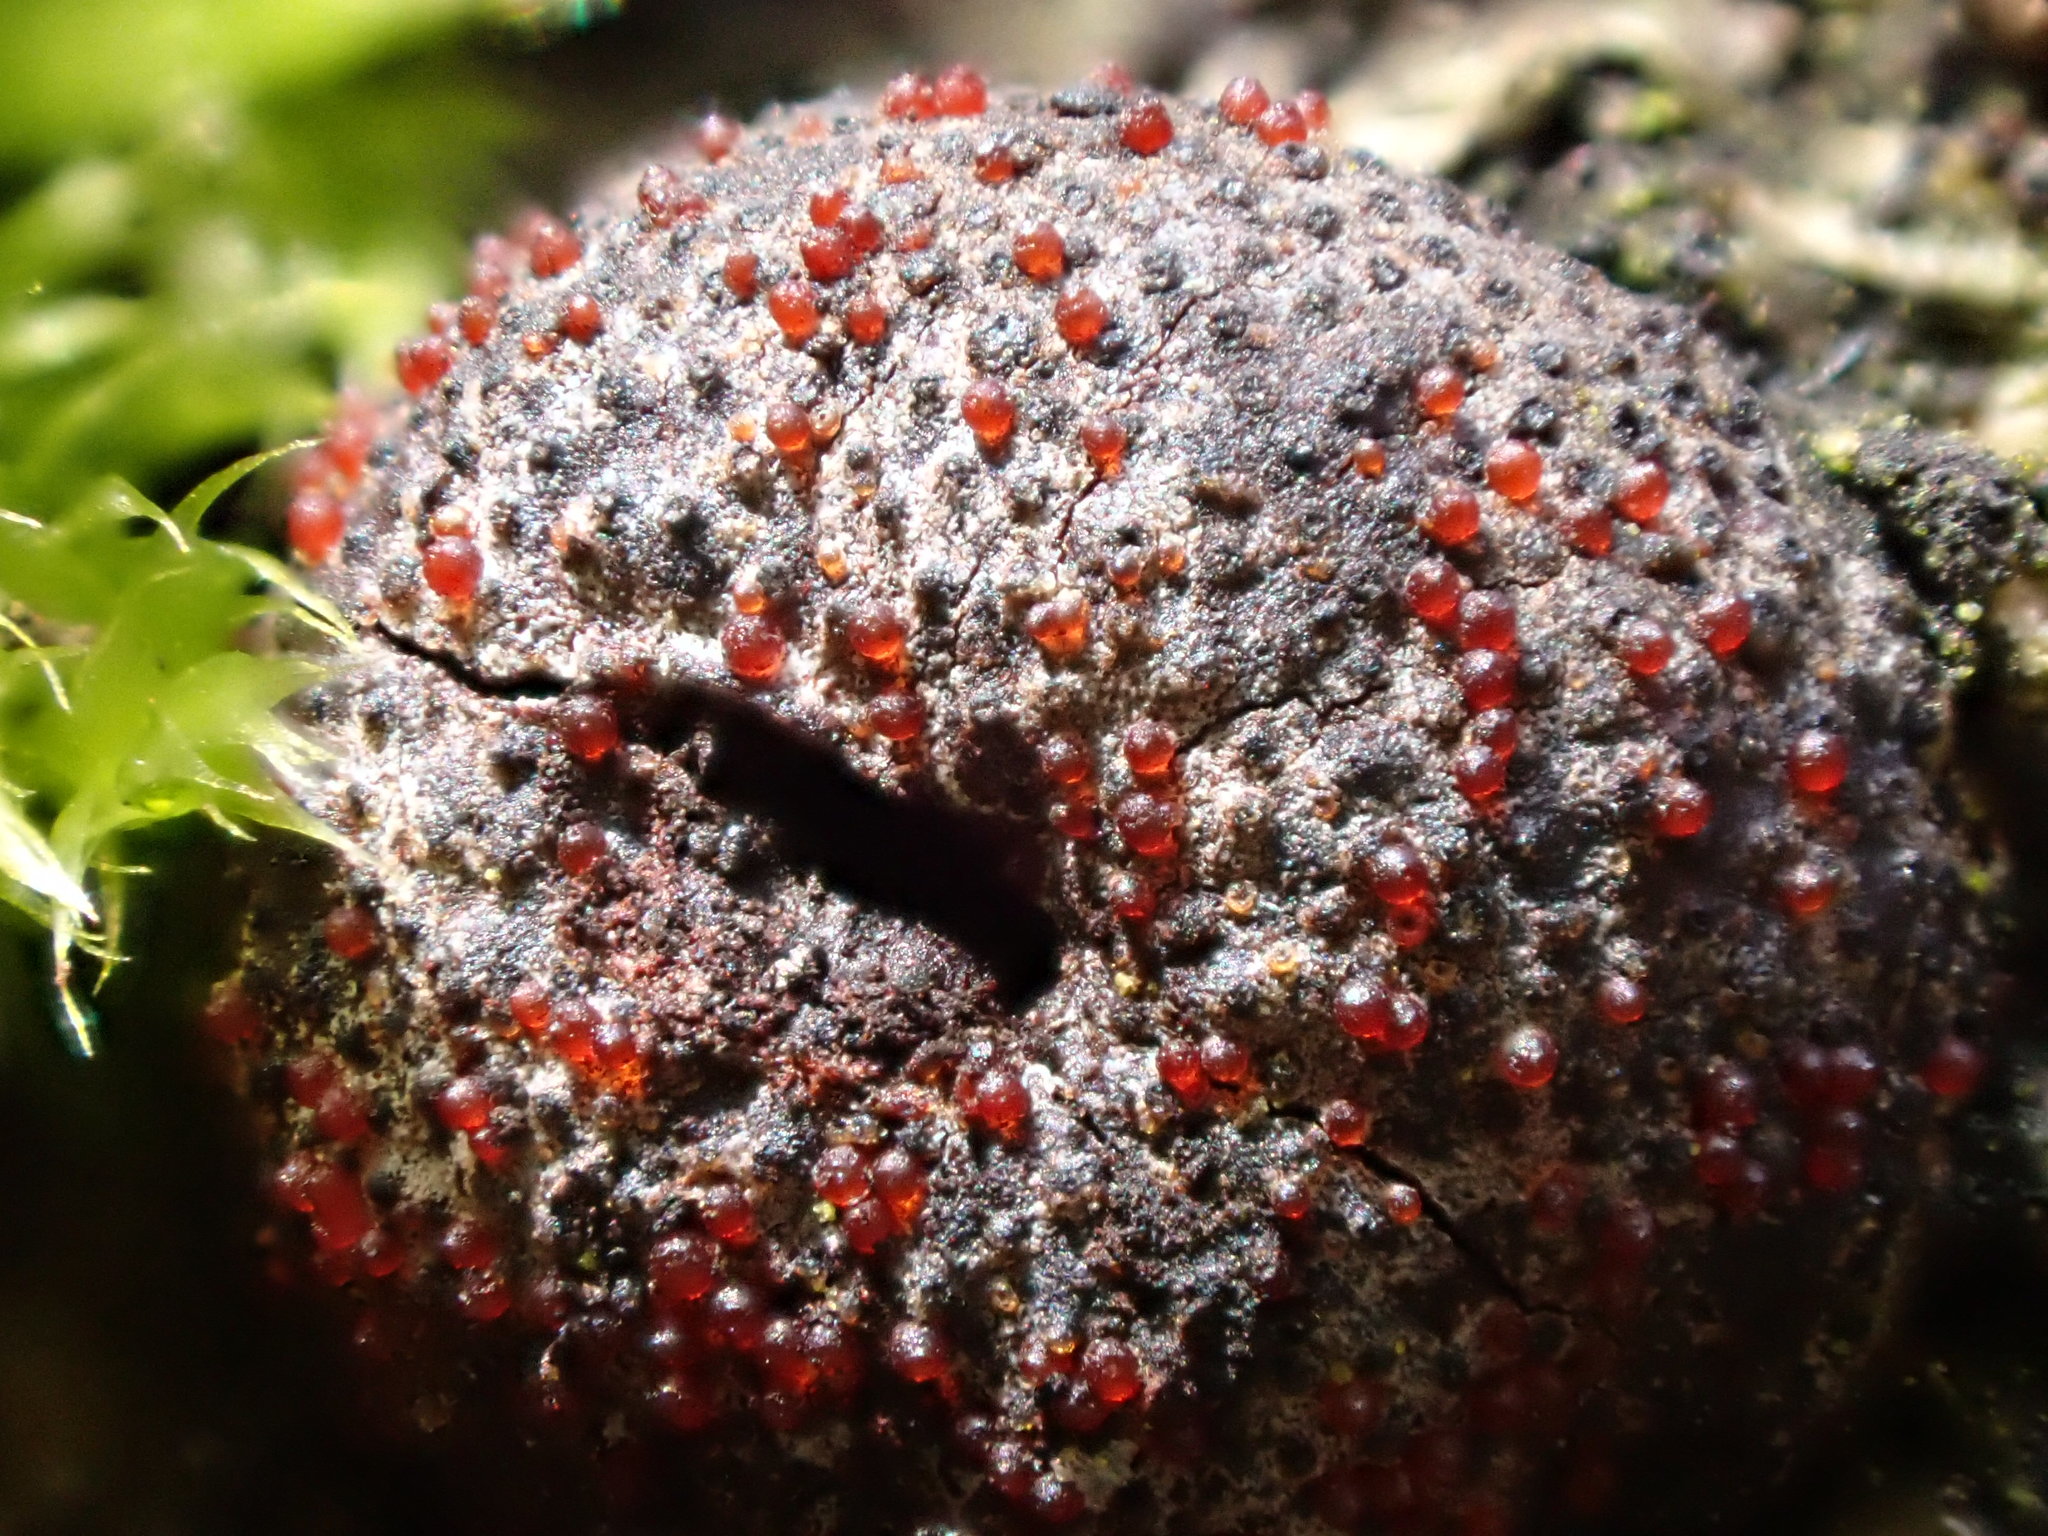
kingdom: Fungi
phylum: Ascomycota
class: Sordariomycetes
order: Hypocreales
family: Nectriaceae
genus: Cosmospora
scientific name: Cosmospora arxii
